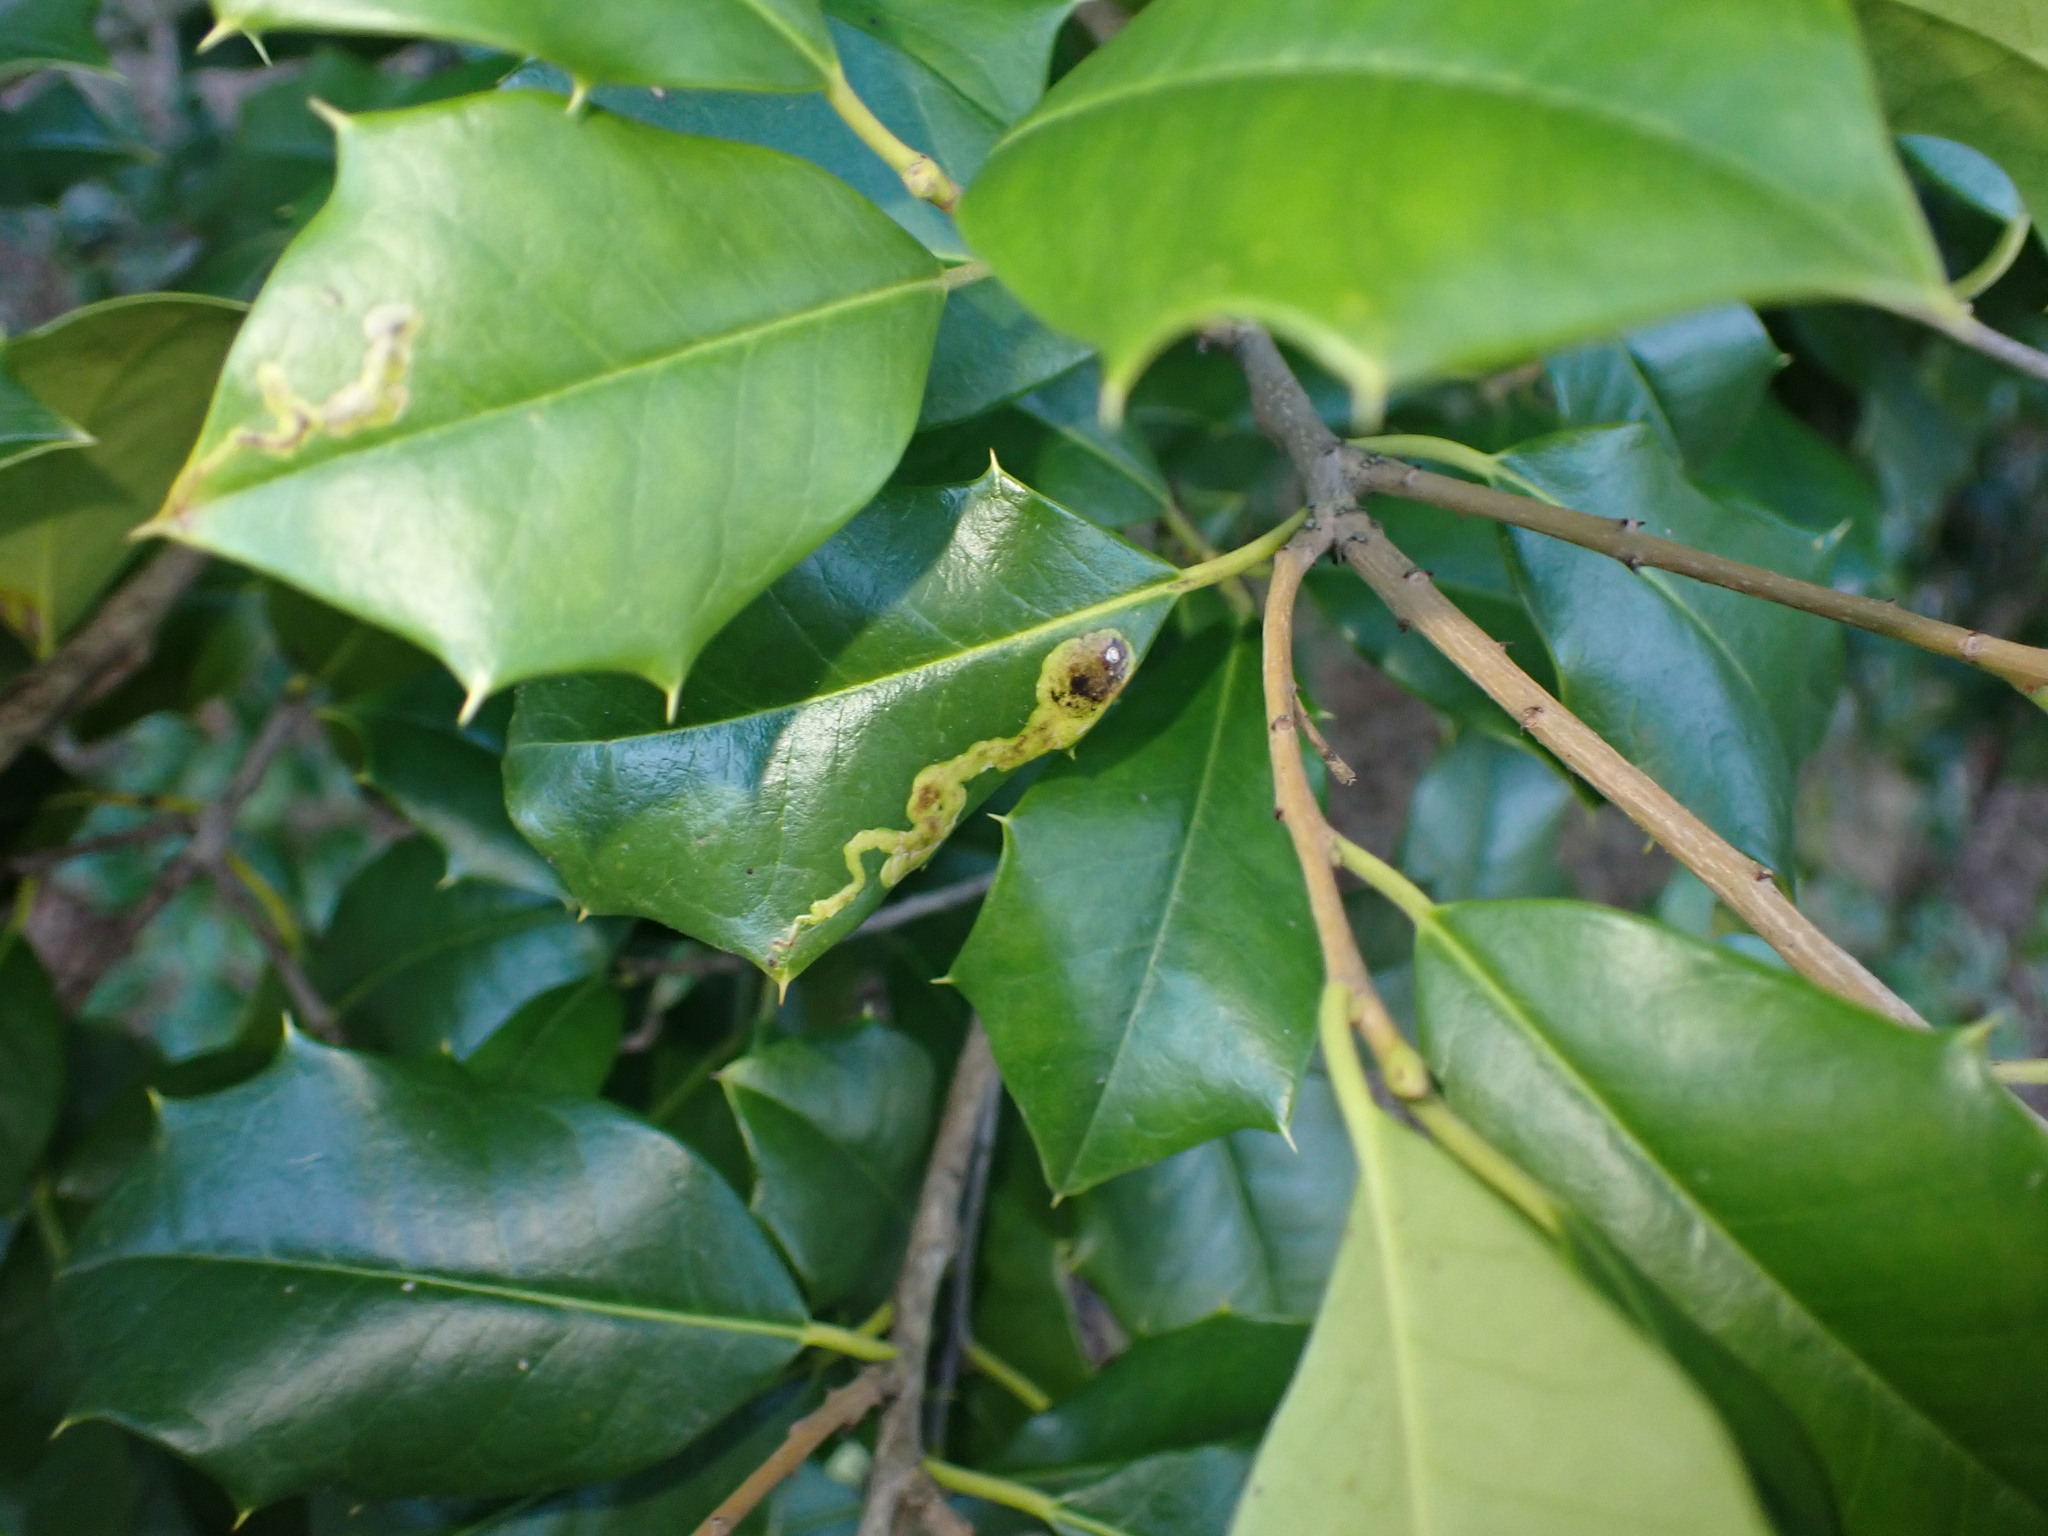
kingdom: Animalia
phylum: Arthropoda
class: Insecta
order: Diptera
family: Agromyzidae
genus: Phytomyza
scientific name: Phytomyza ilicicola
